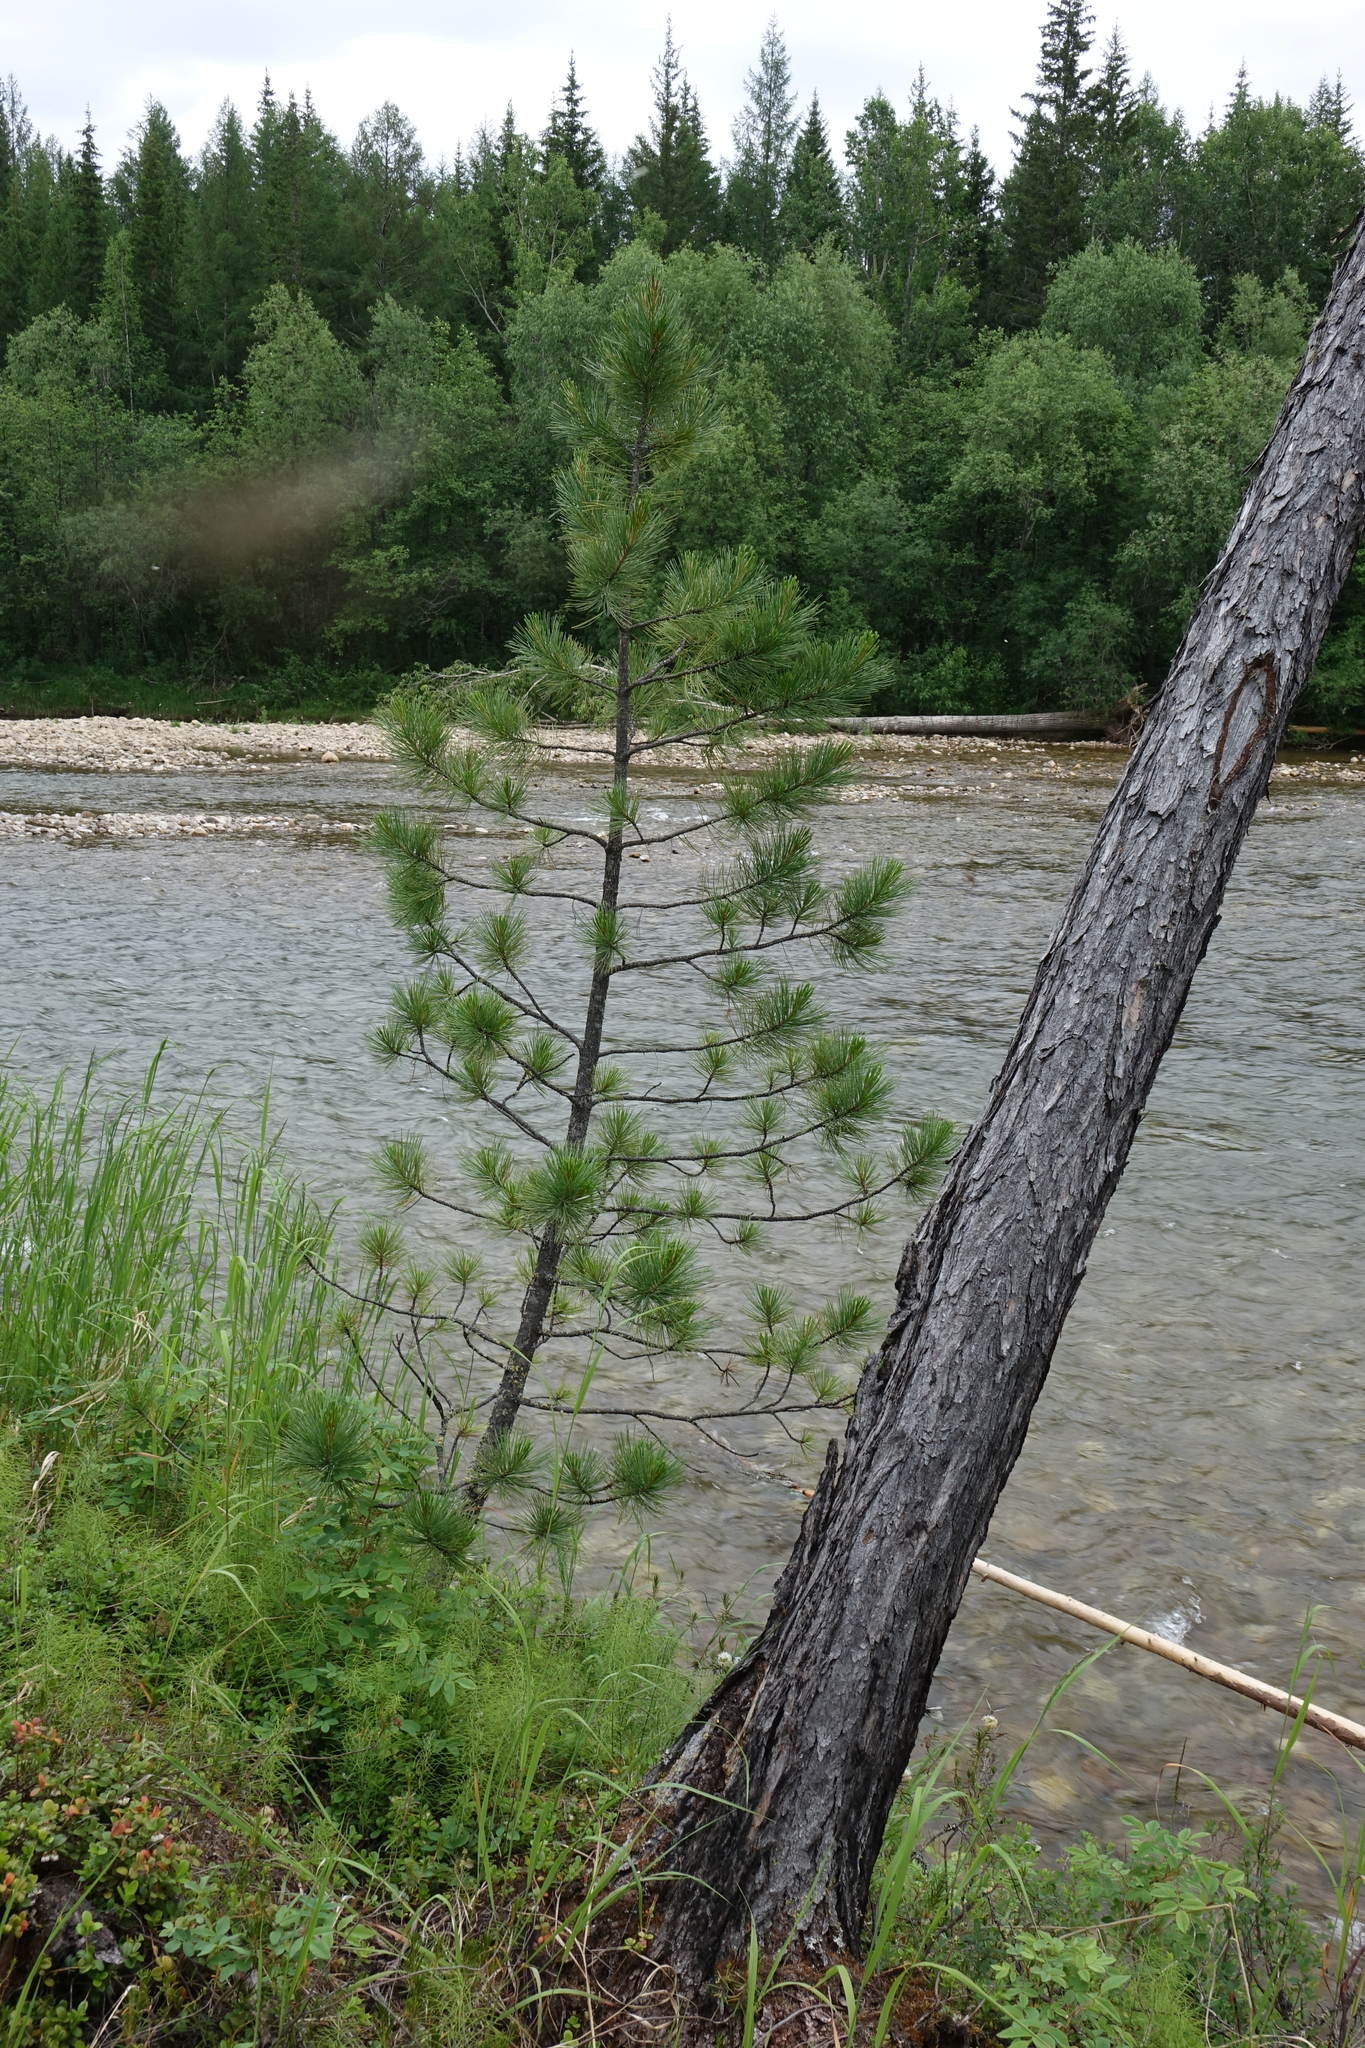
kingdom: Plantae
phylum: Tracheophyta
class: Pinopsida
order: Pinales
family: Pinaceae
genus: Pinus
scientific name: Pinus sibirica
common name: Siberian pine
